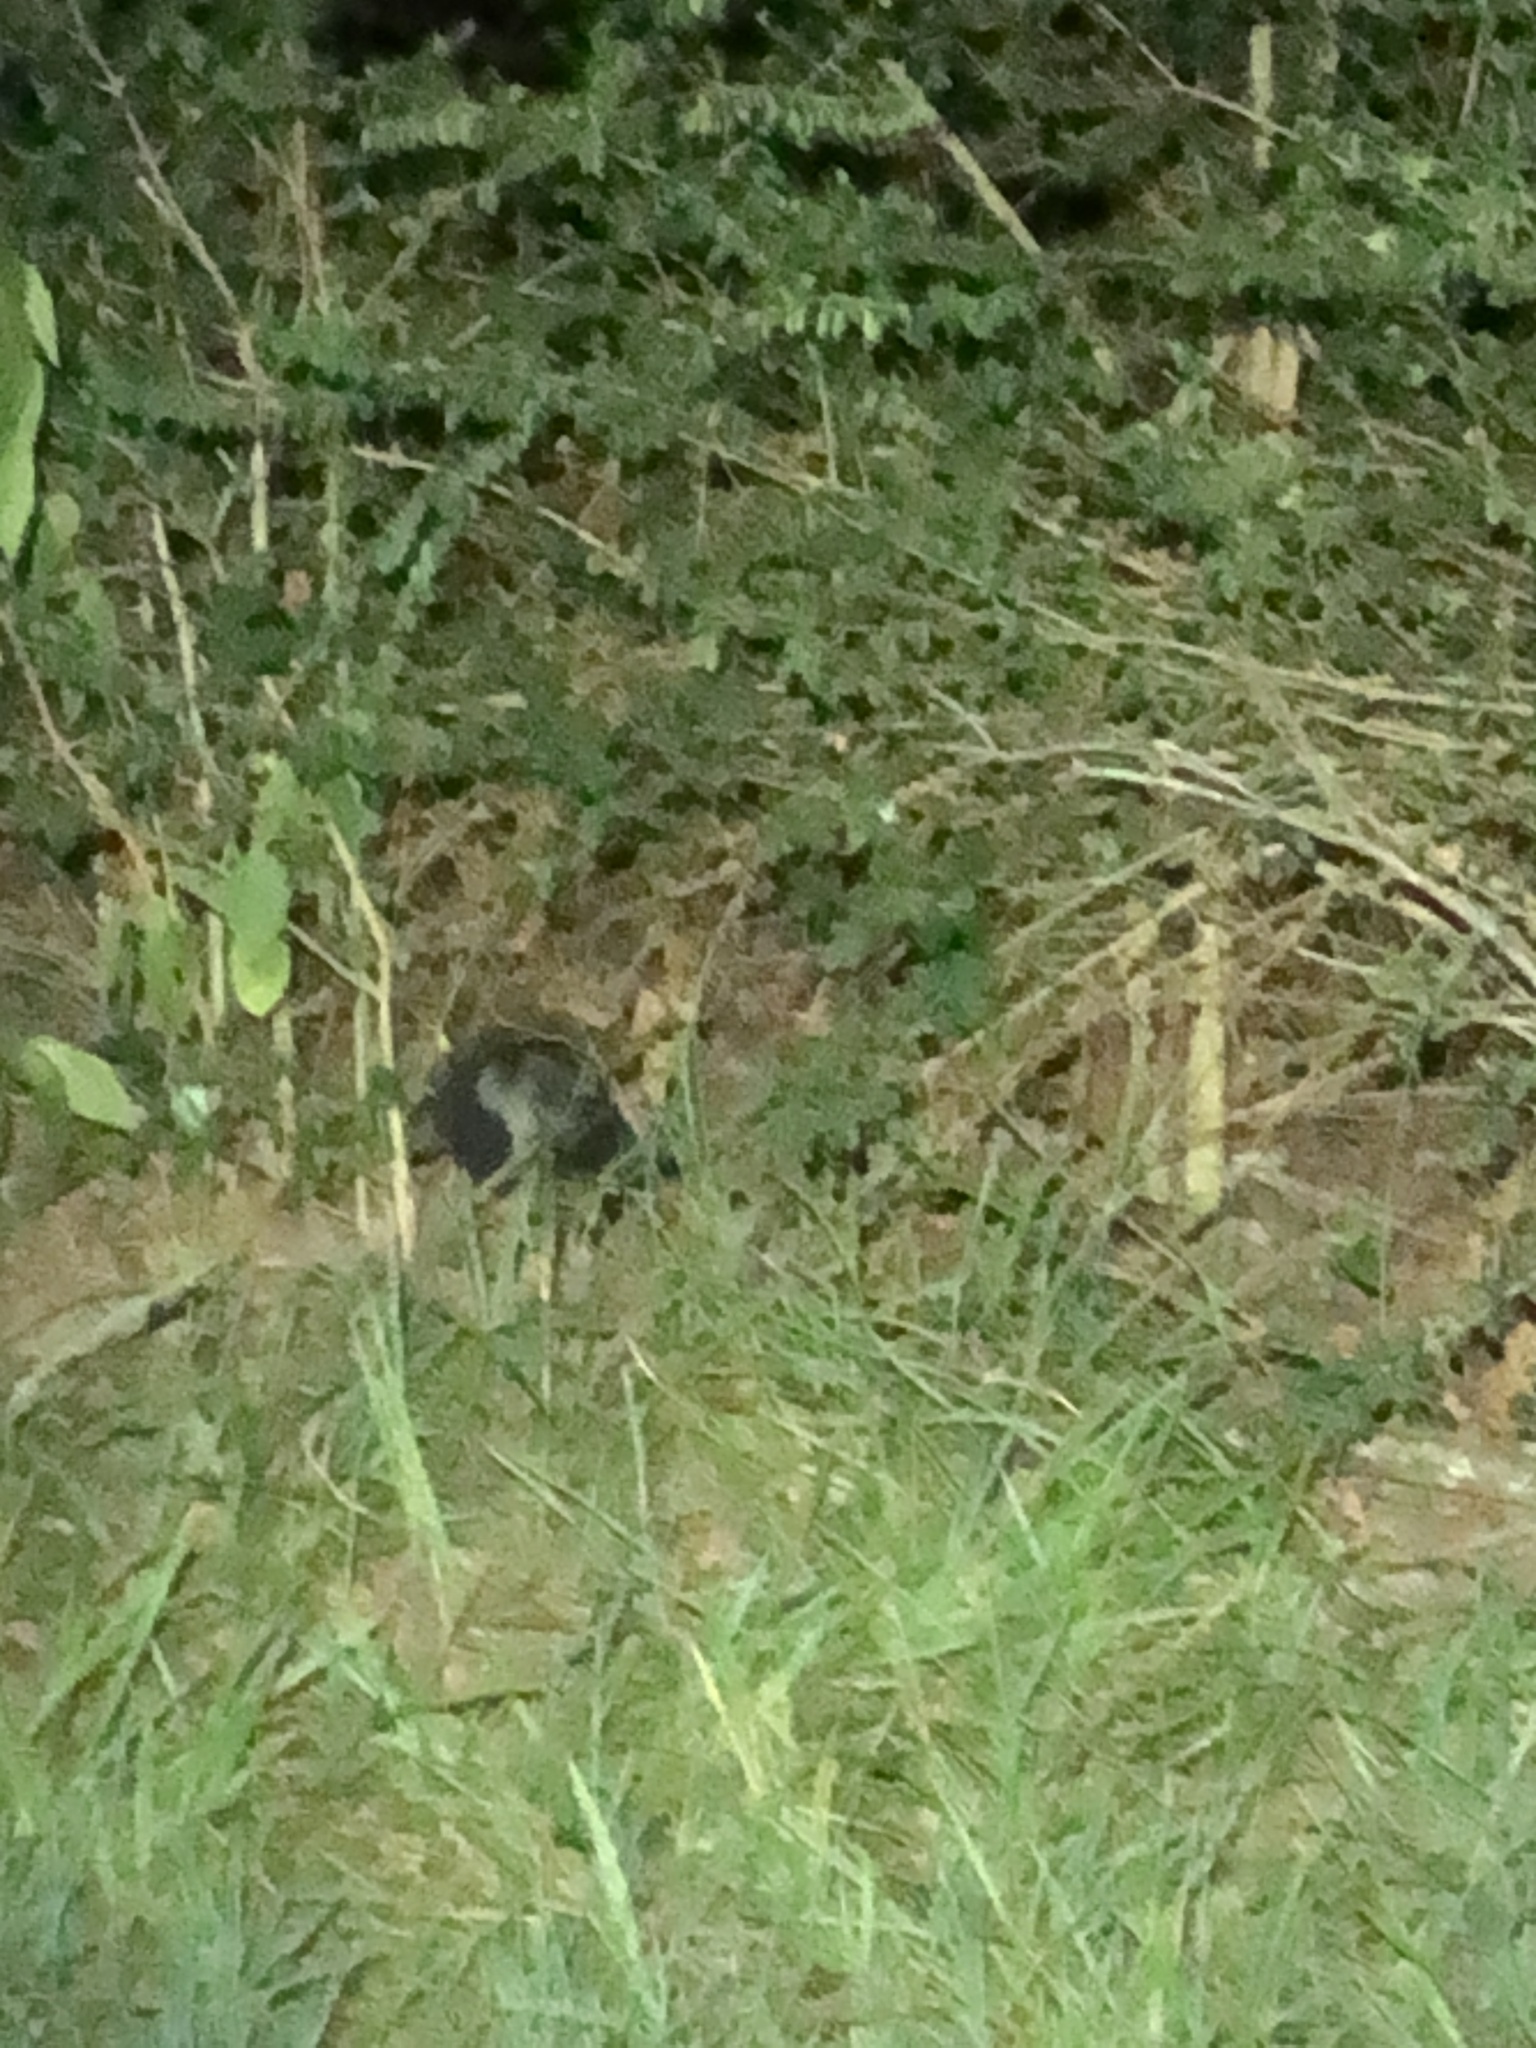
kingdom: Animalia
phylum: Chordata
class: Mammalia
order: Carnivora
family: Mephitidae
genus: Mephitis
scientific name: Mephitis mephitis
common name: Striped skunk
